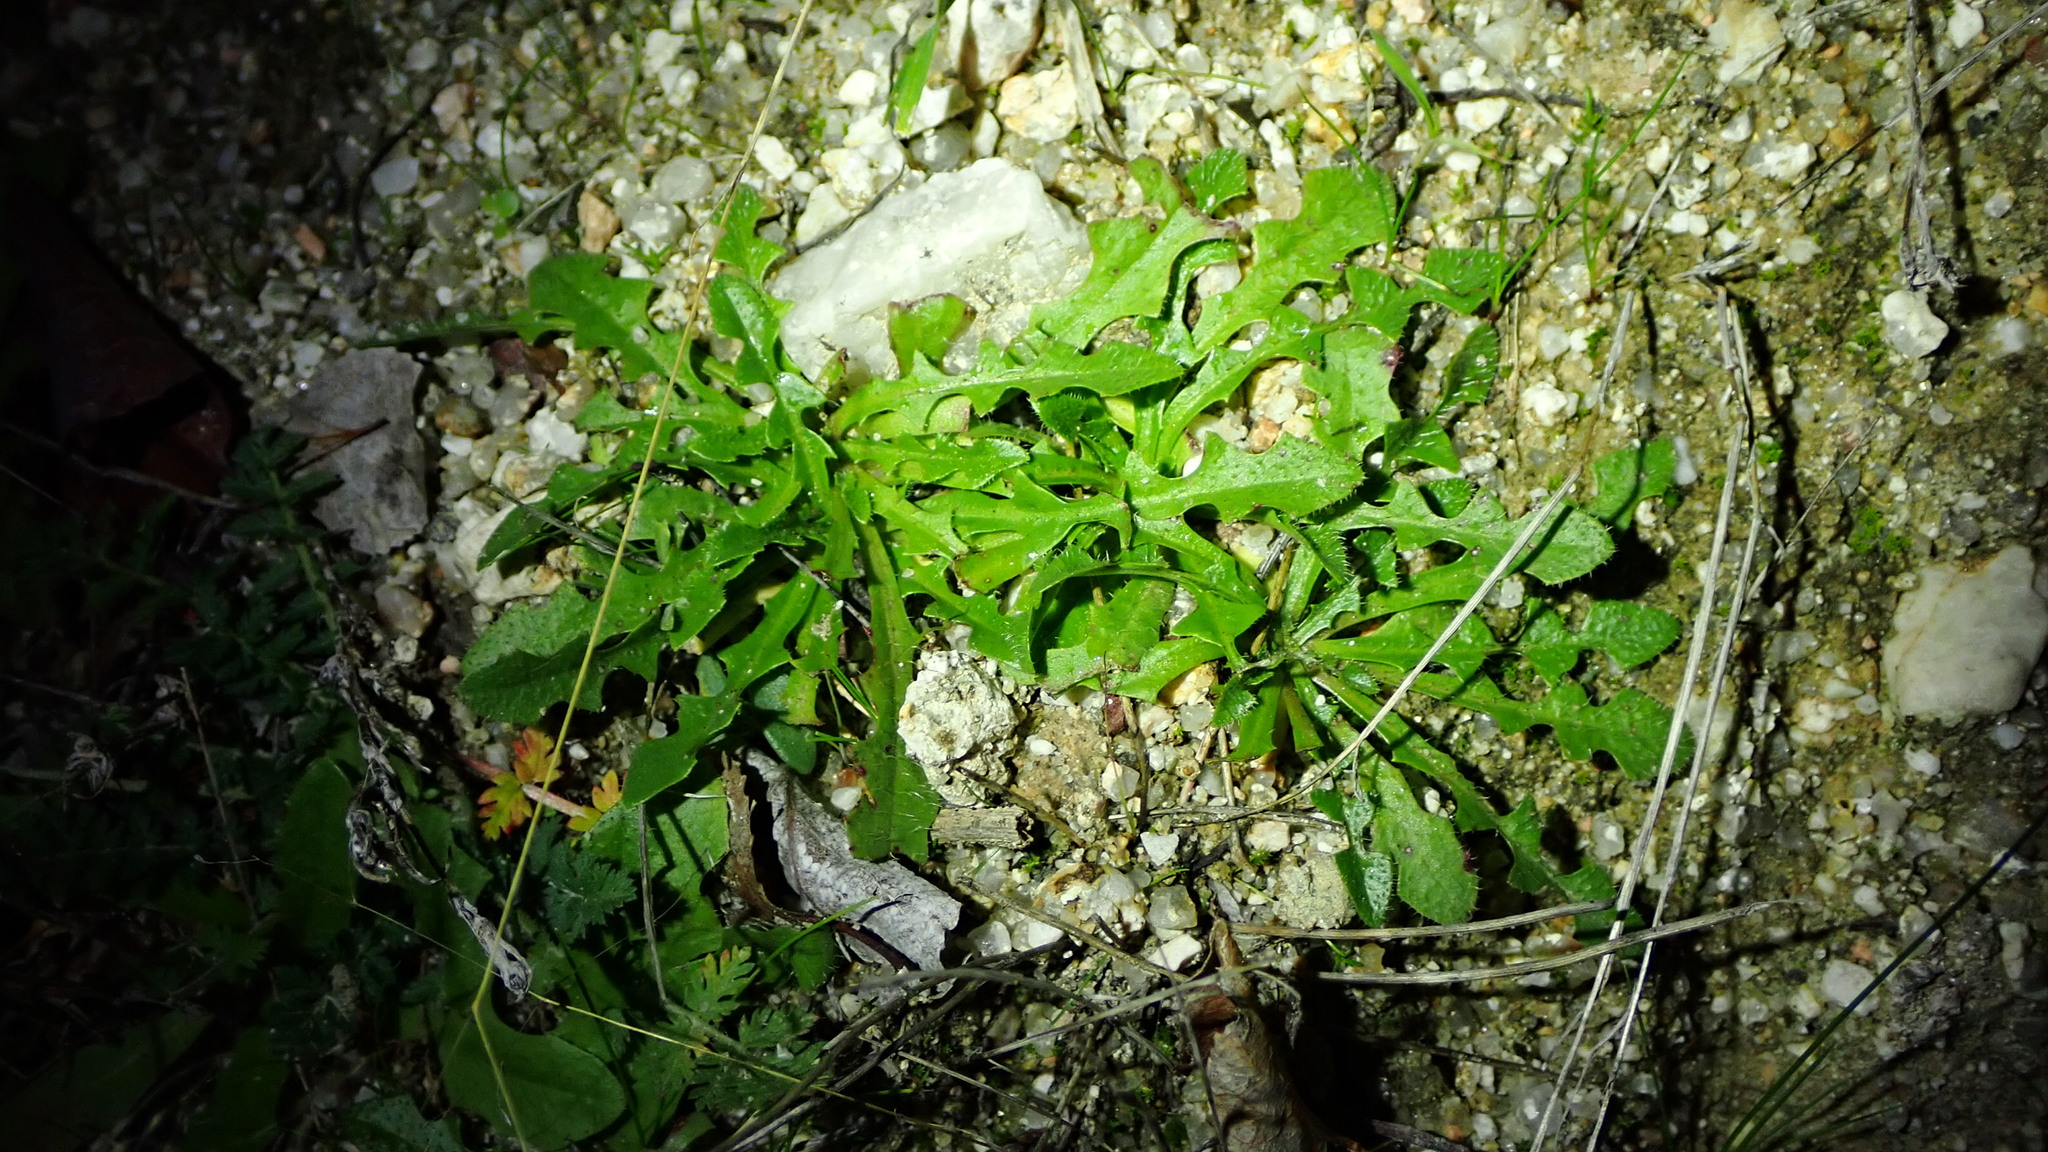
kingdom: Plantae
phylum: Tracheophyta
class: Magnoliopsida
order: Asterales
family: Asteraceae
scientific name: Asteraceae
